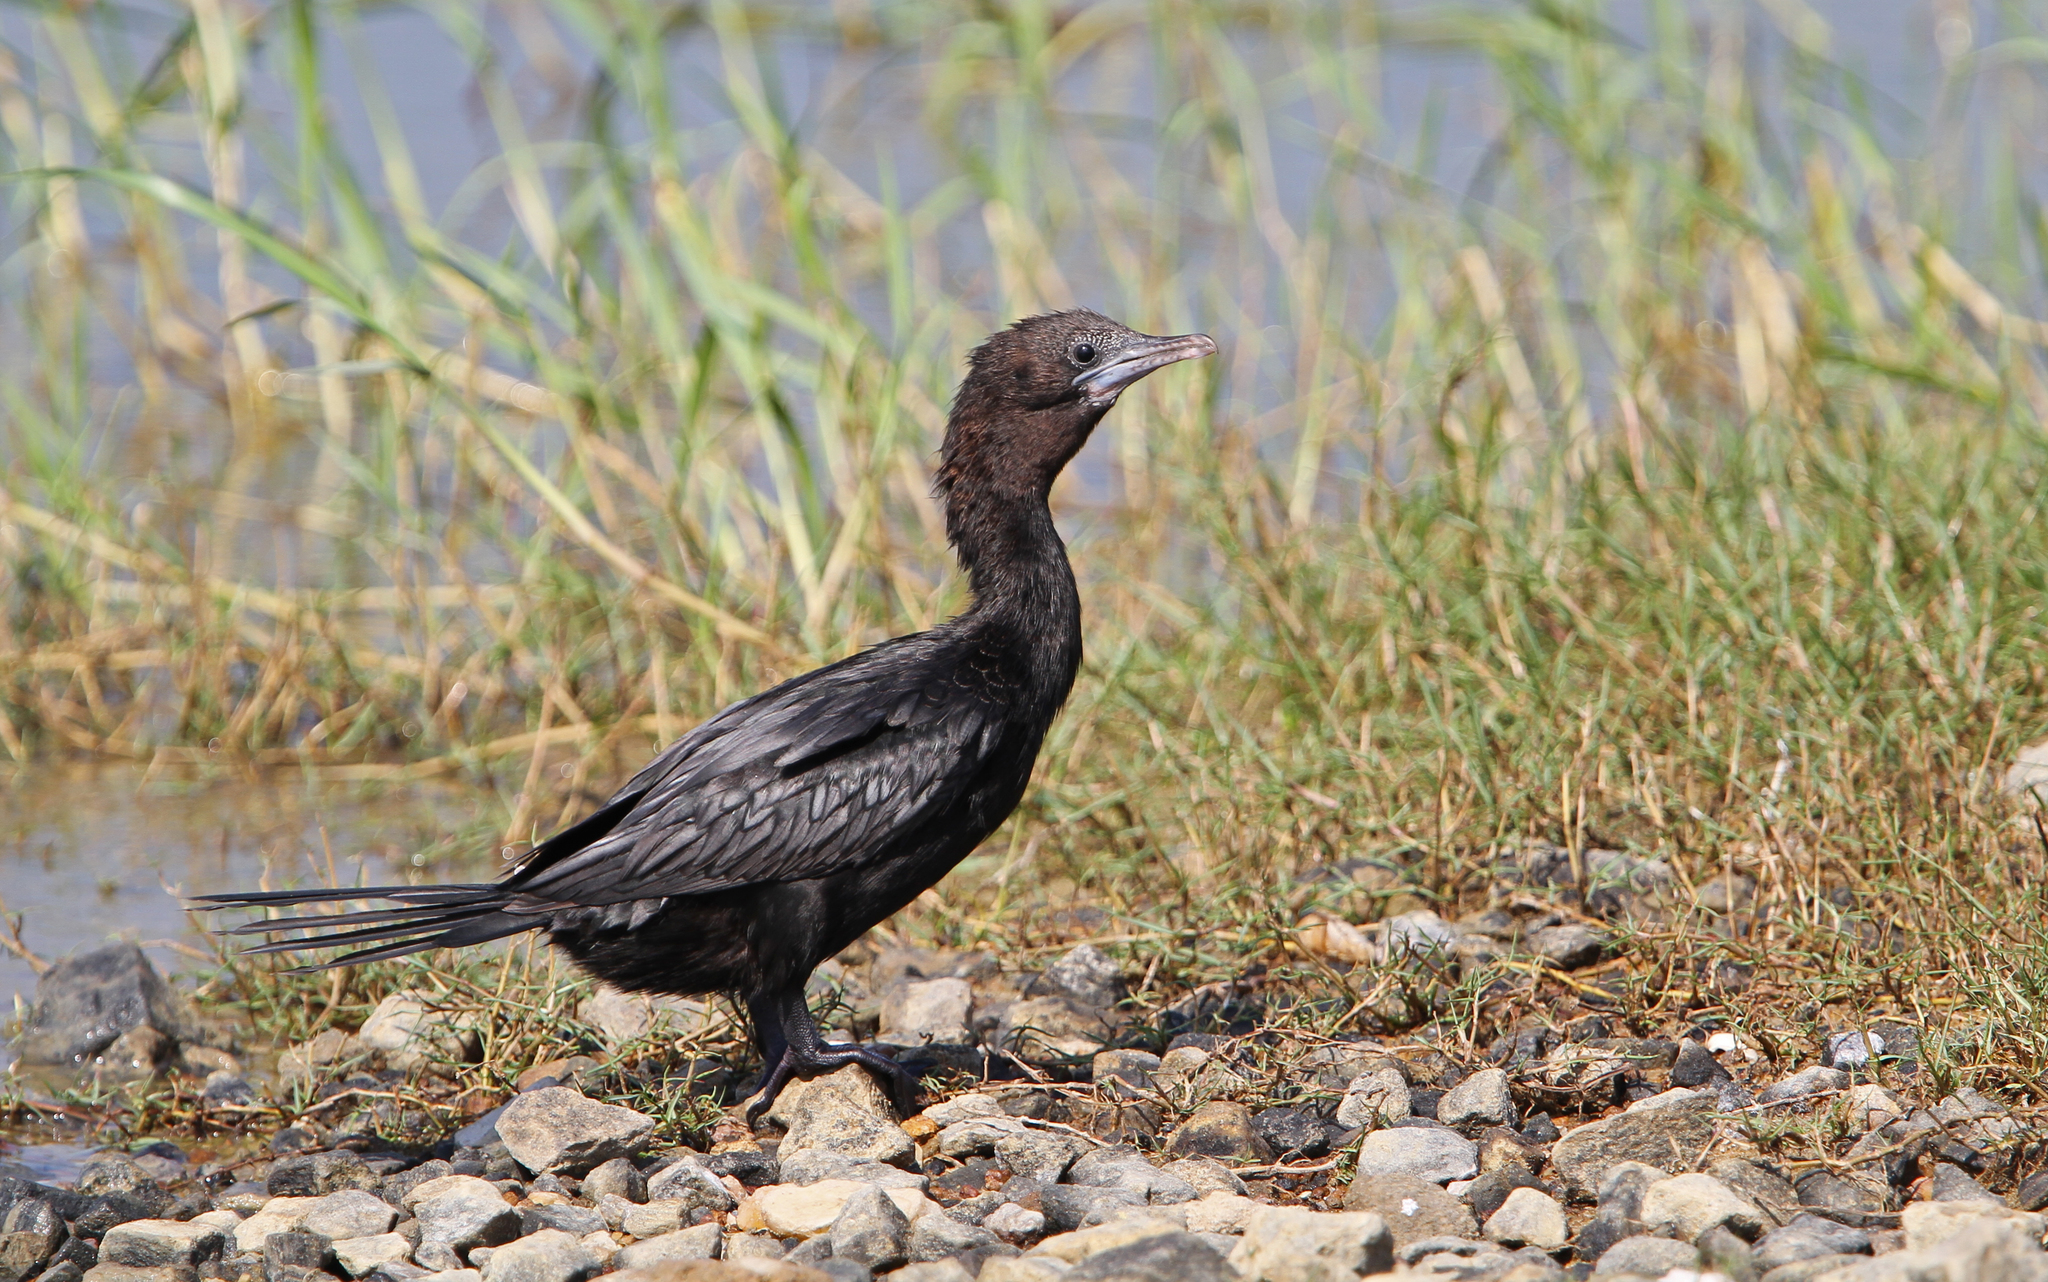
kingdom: Animalia
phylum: Chordata
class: Aves
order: Suliformes
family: Phalacrocoracidae
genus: Microcarbo
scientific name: Microcarbo niger
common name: Little cormorant
